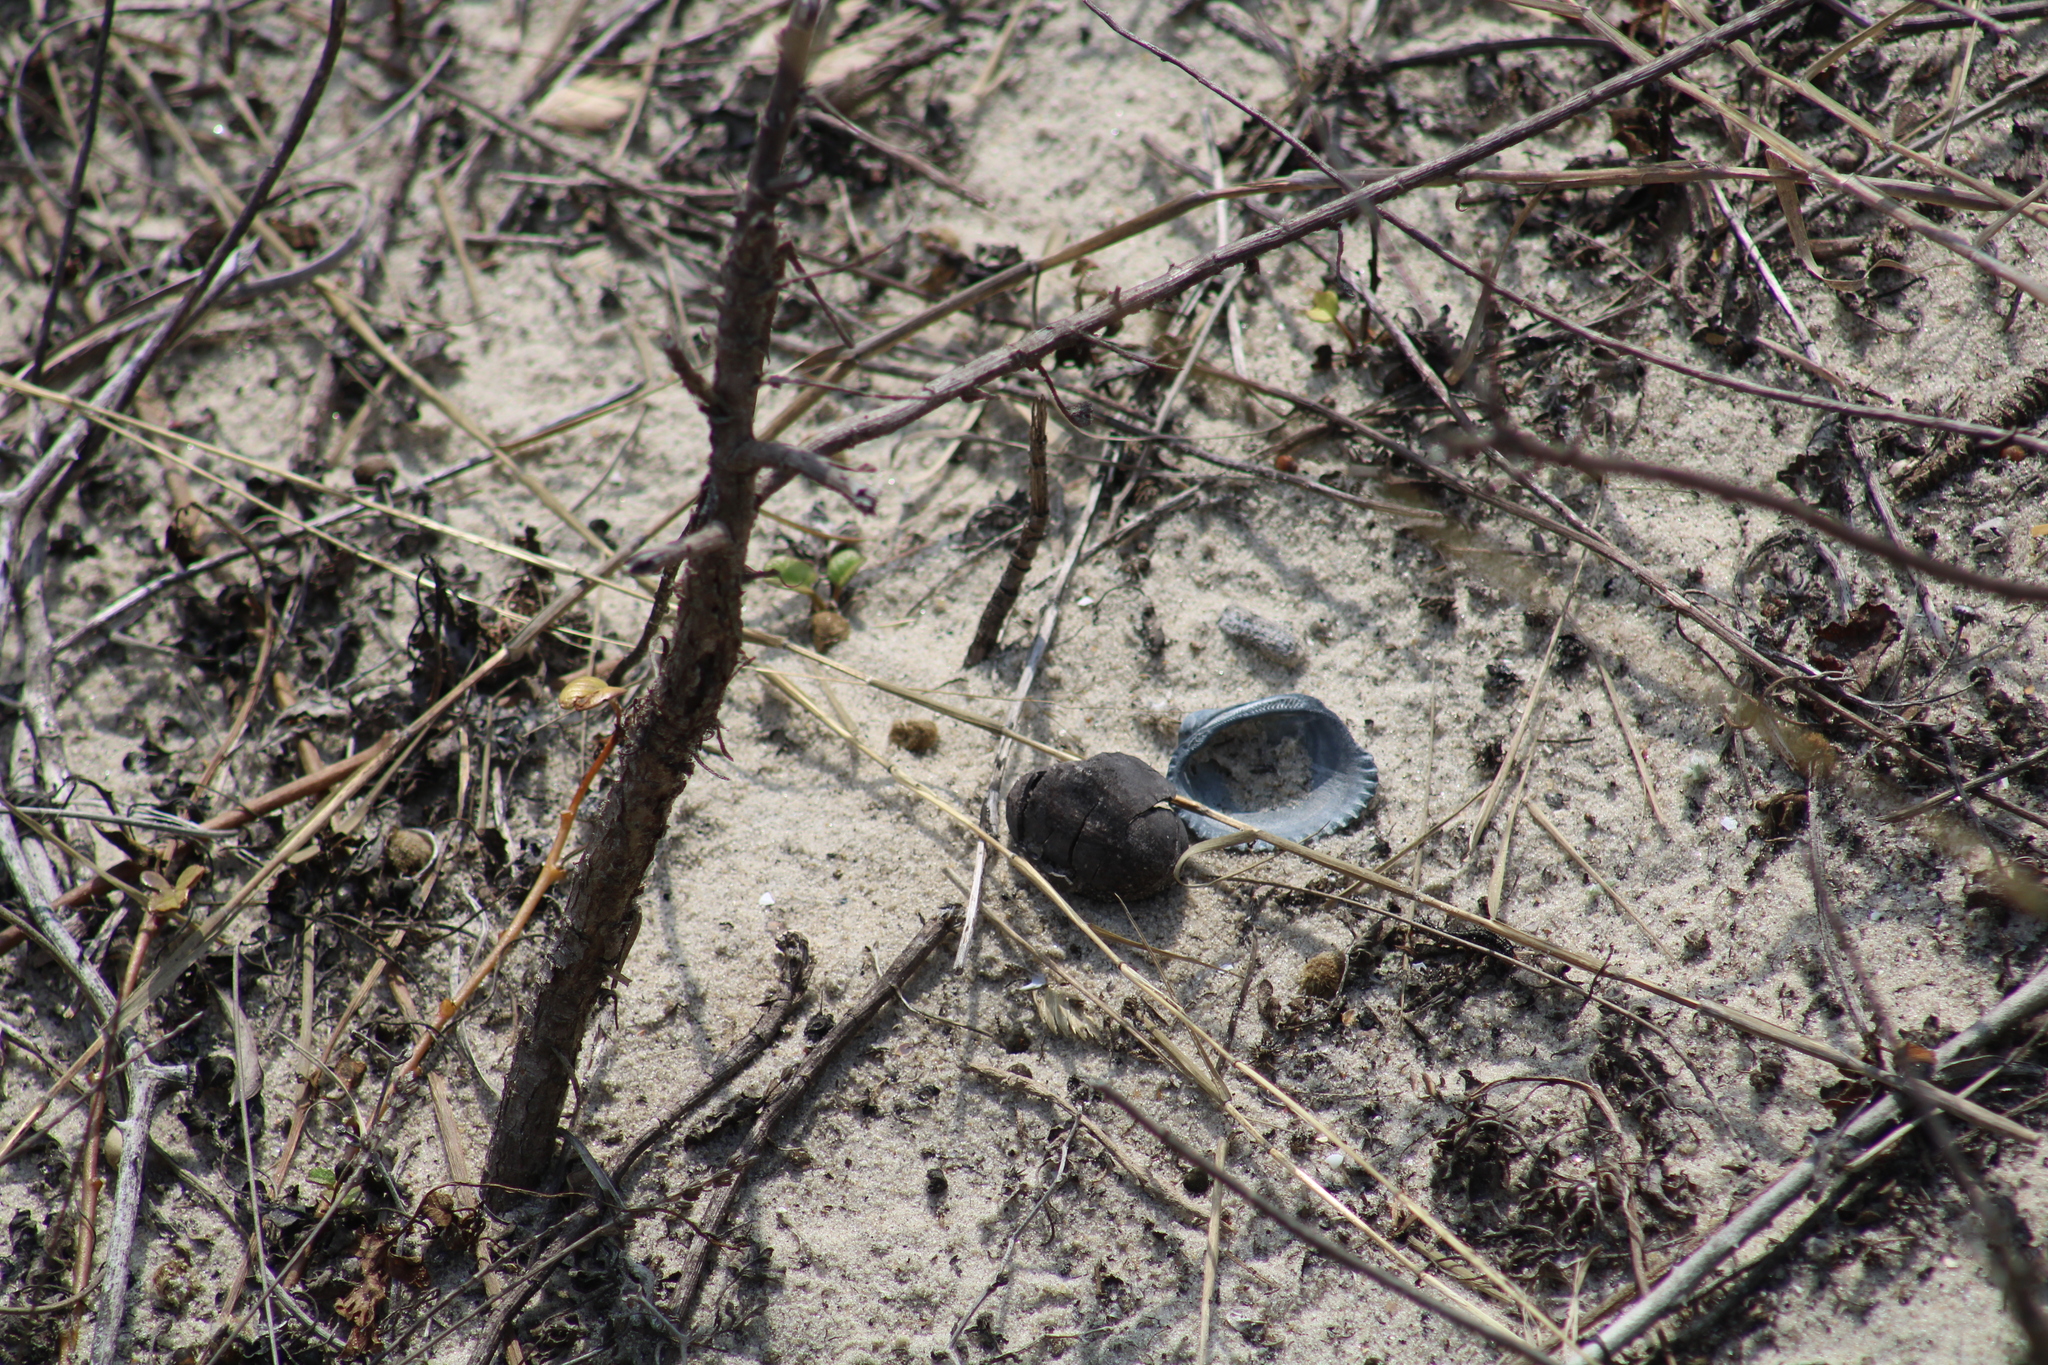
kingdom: Animalia
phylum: Mollusca
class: Bivalvia
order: Arcida
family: Arcidae
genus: Lunarca
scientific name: Lunarca ovalis
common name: Blood ark
